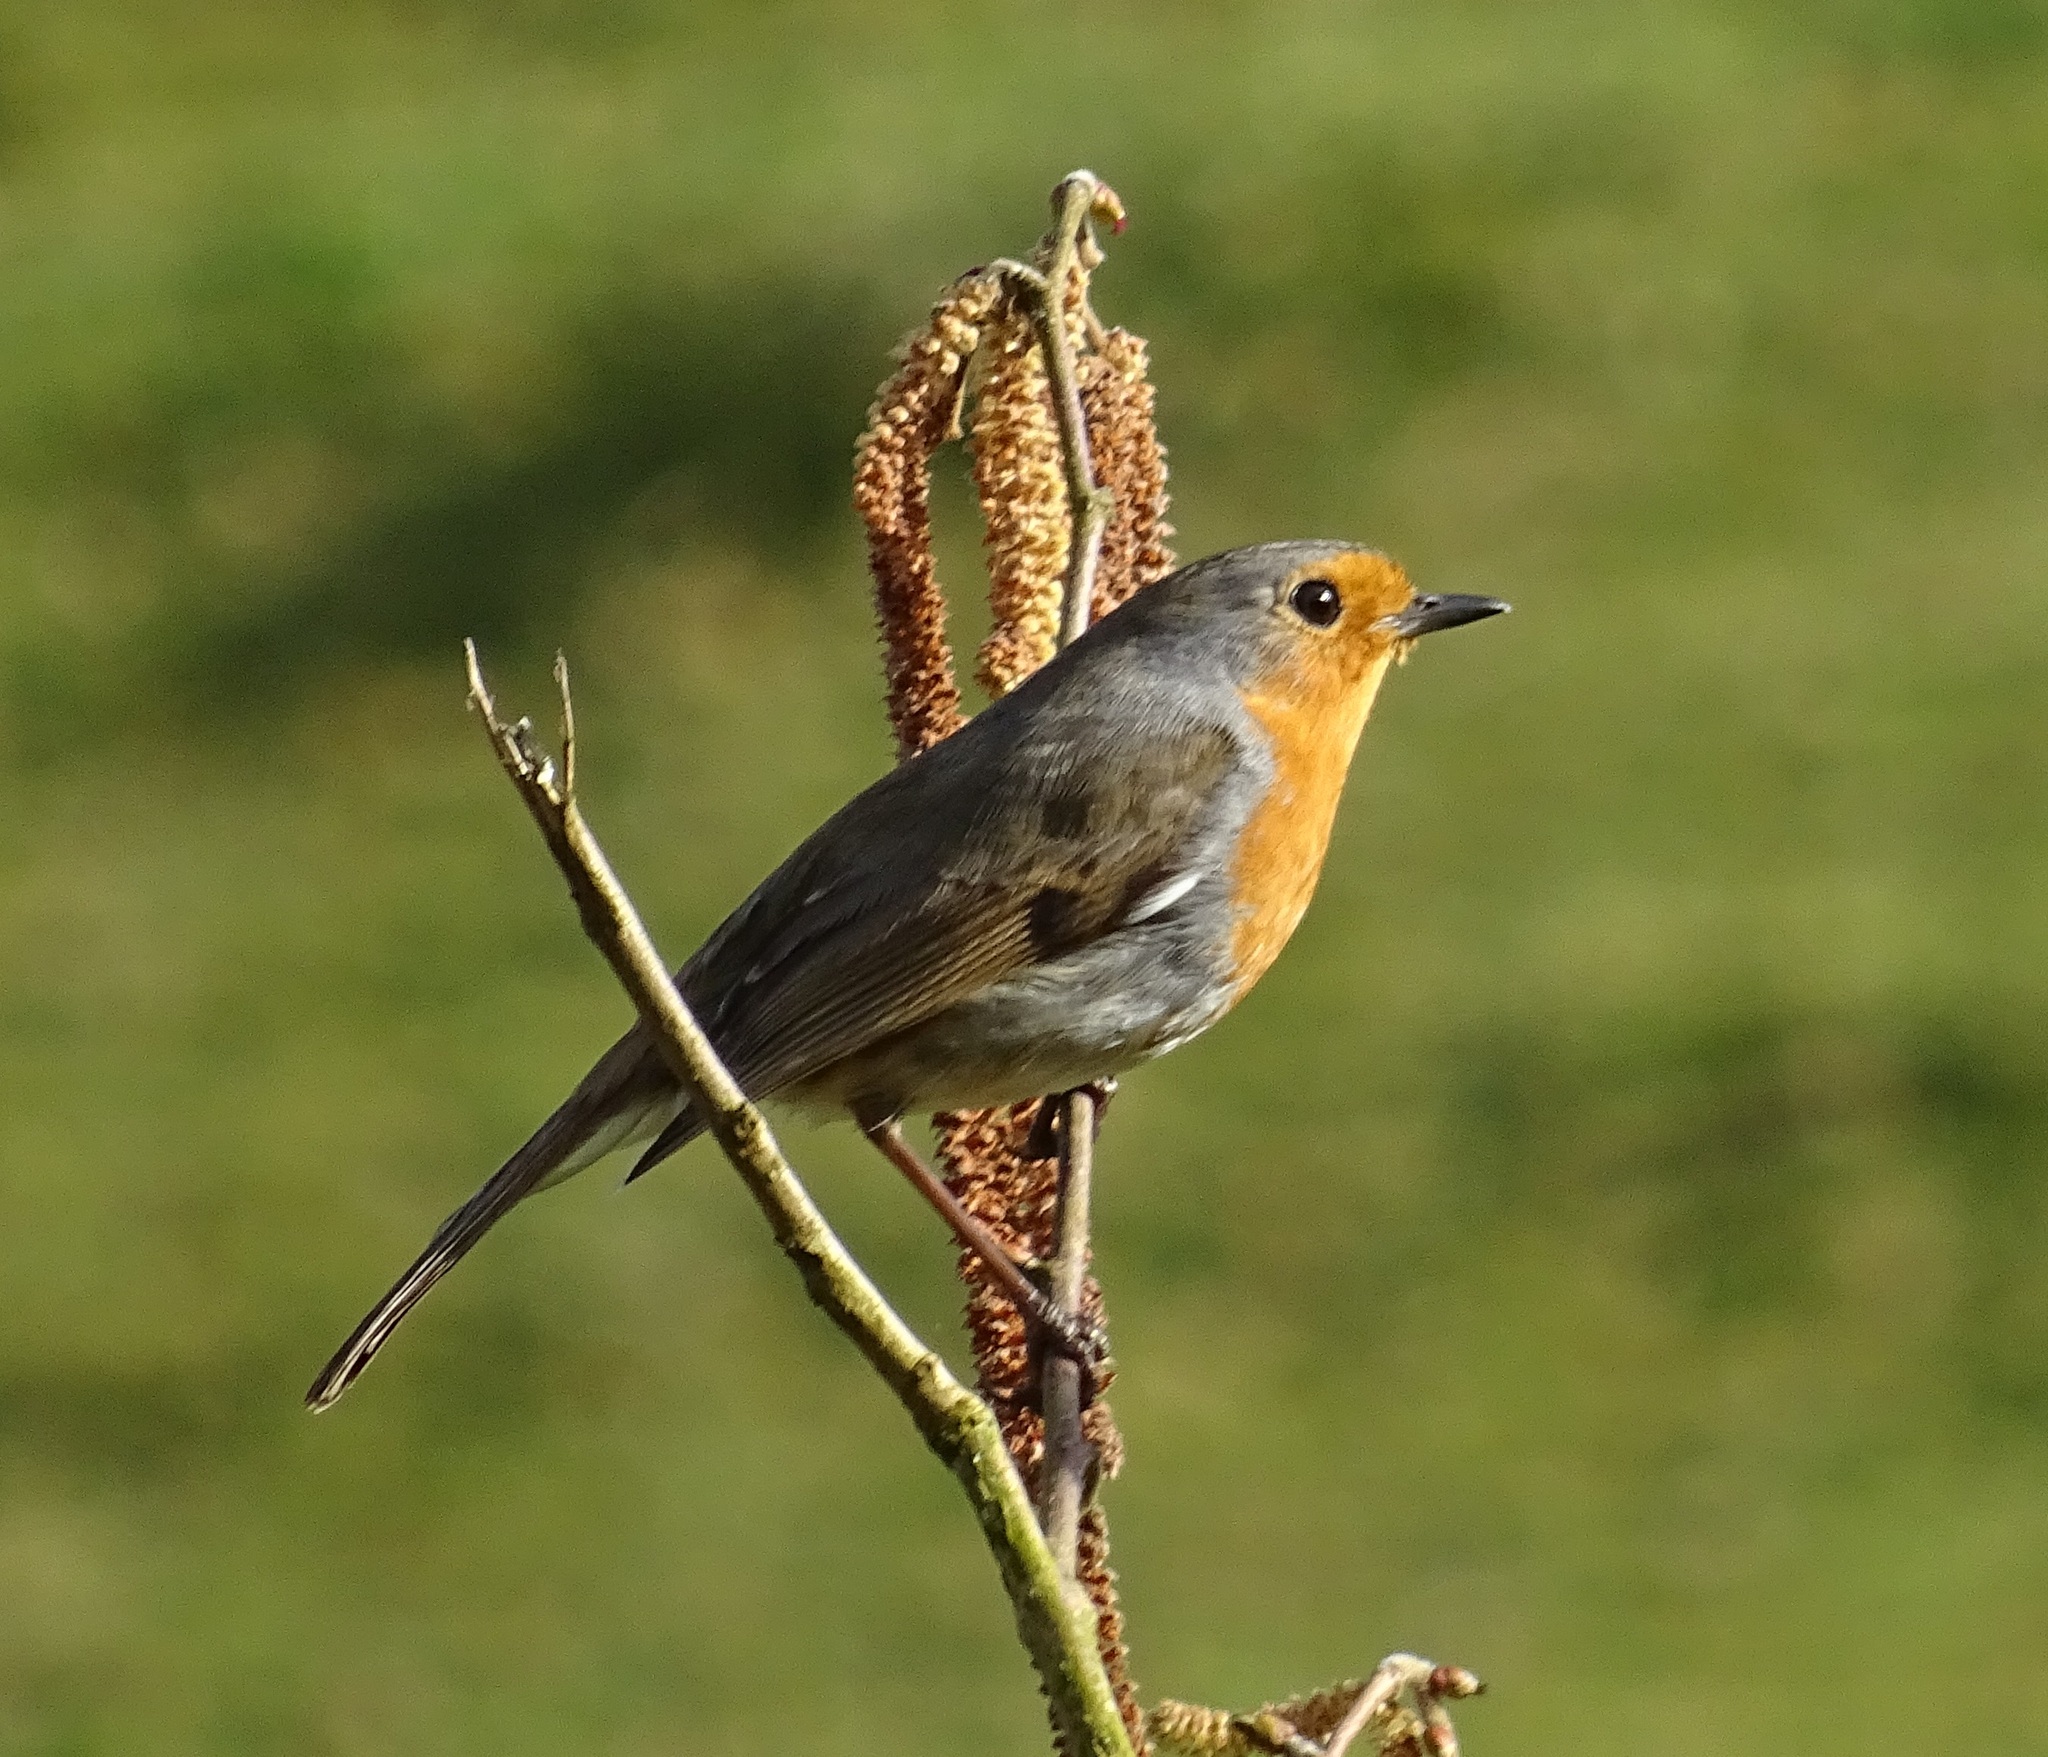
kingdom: Animalia
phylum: Chordata
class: Aves
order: Passeriformes
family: Muscicapidae
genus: Erithacus
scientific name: Erithacus rubecula
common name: European robin
